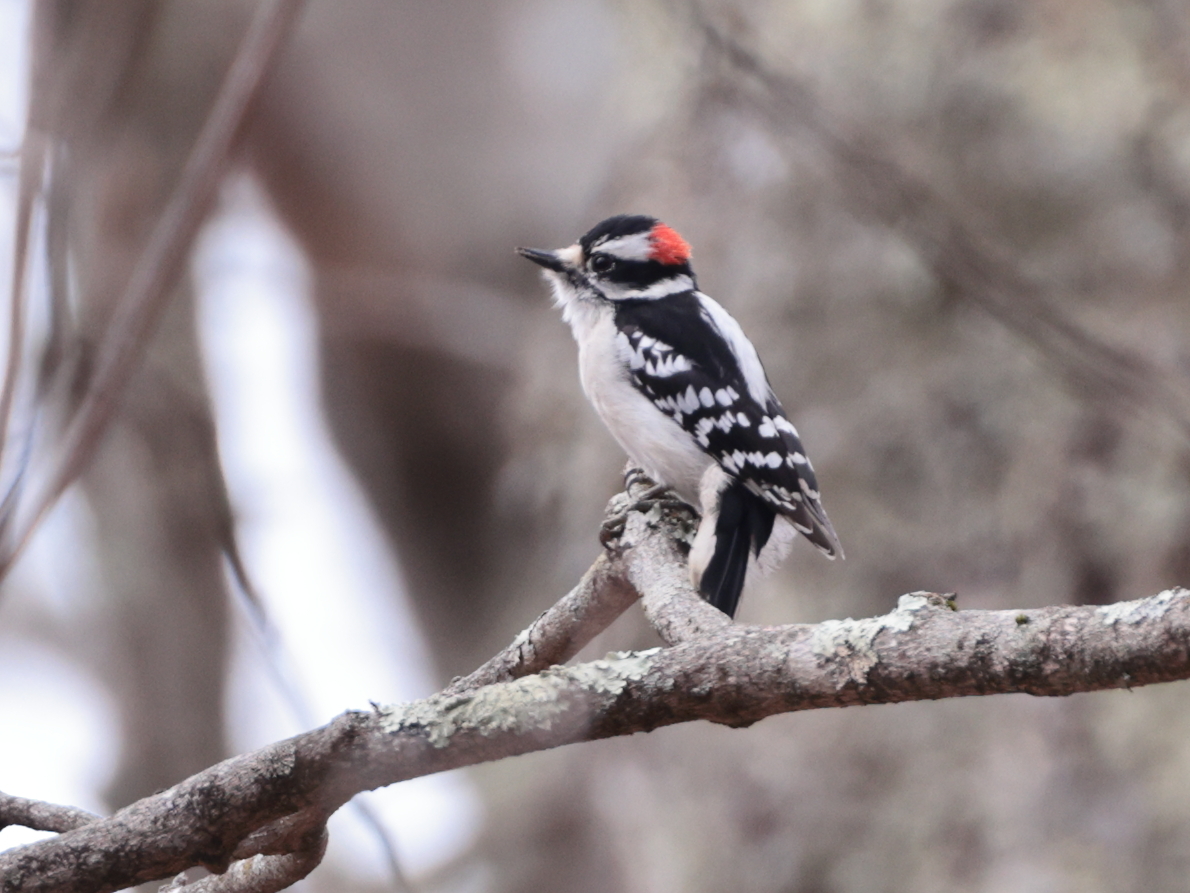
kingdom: Animalia
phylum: Chordata
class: Aves
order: Piciformes
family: Picidae
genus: Dryobates
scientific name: Dryobates pubescens
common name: Downy woodpecker
